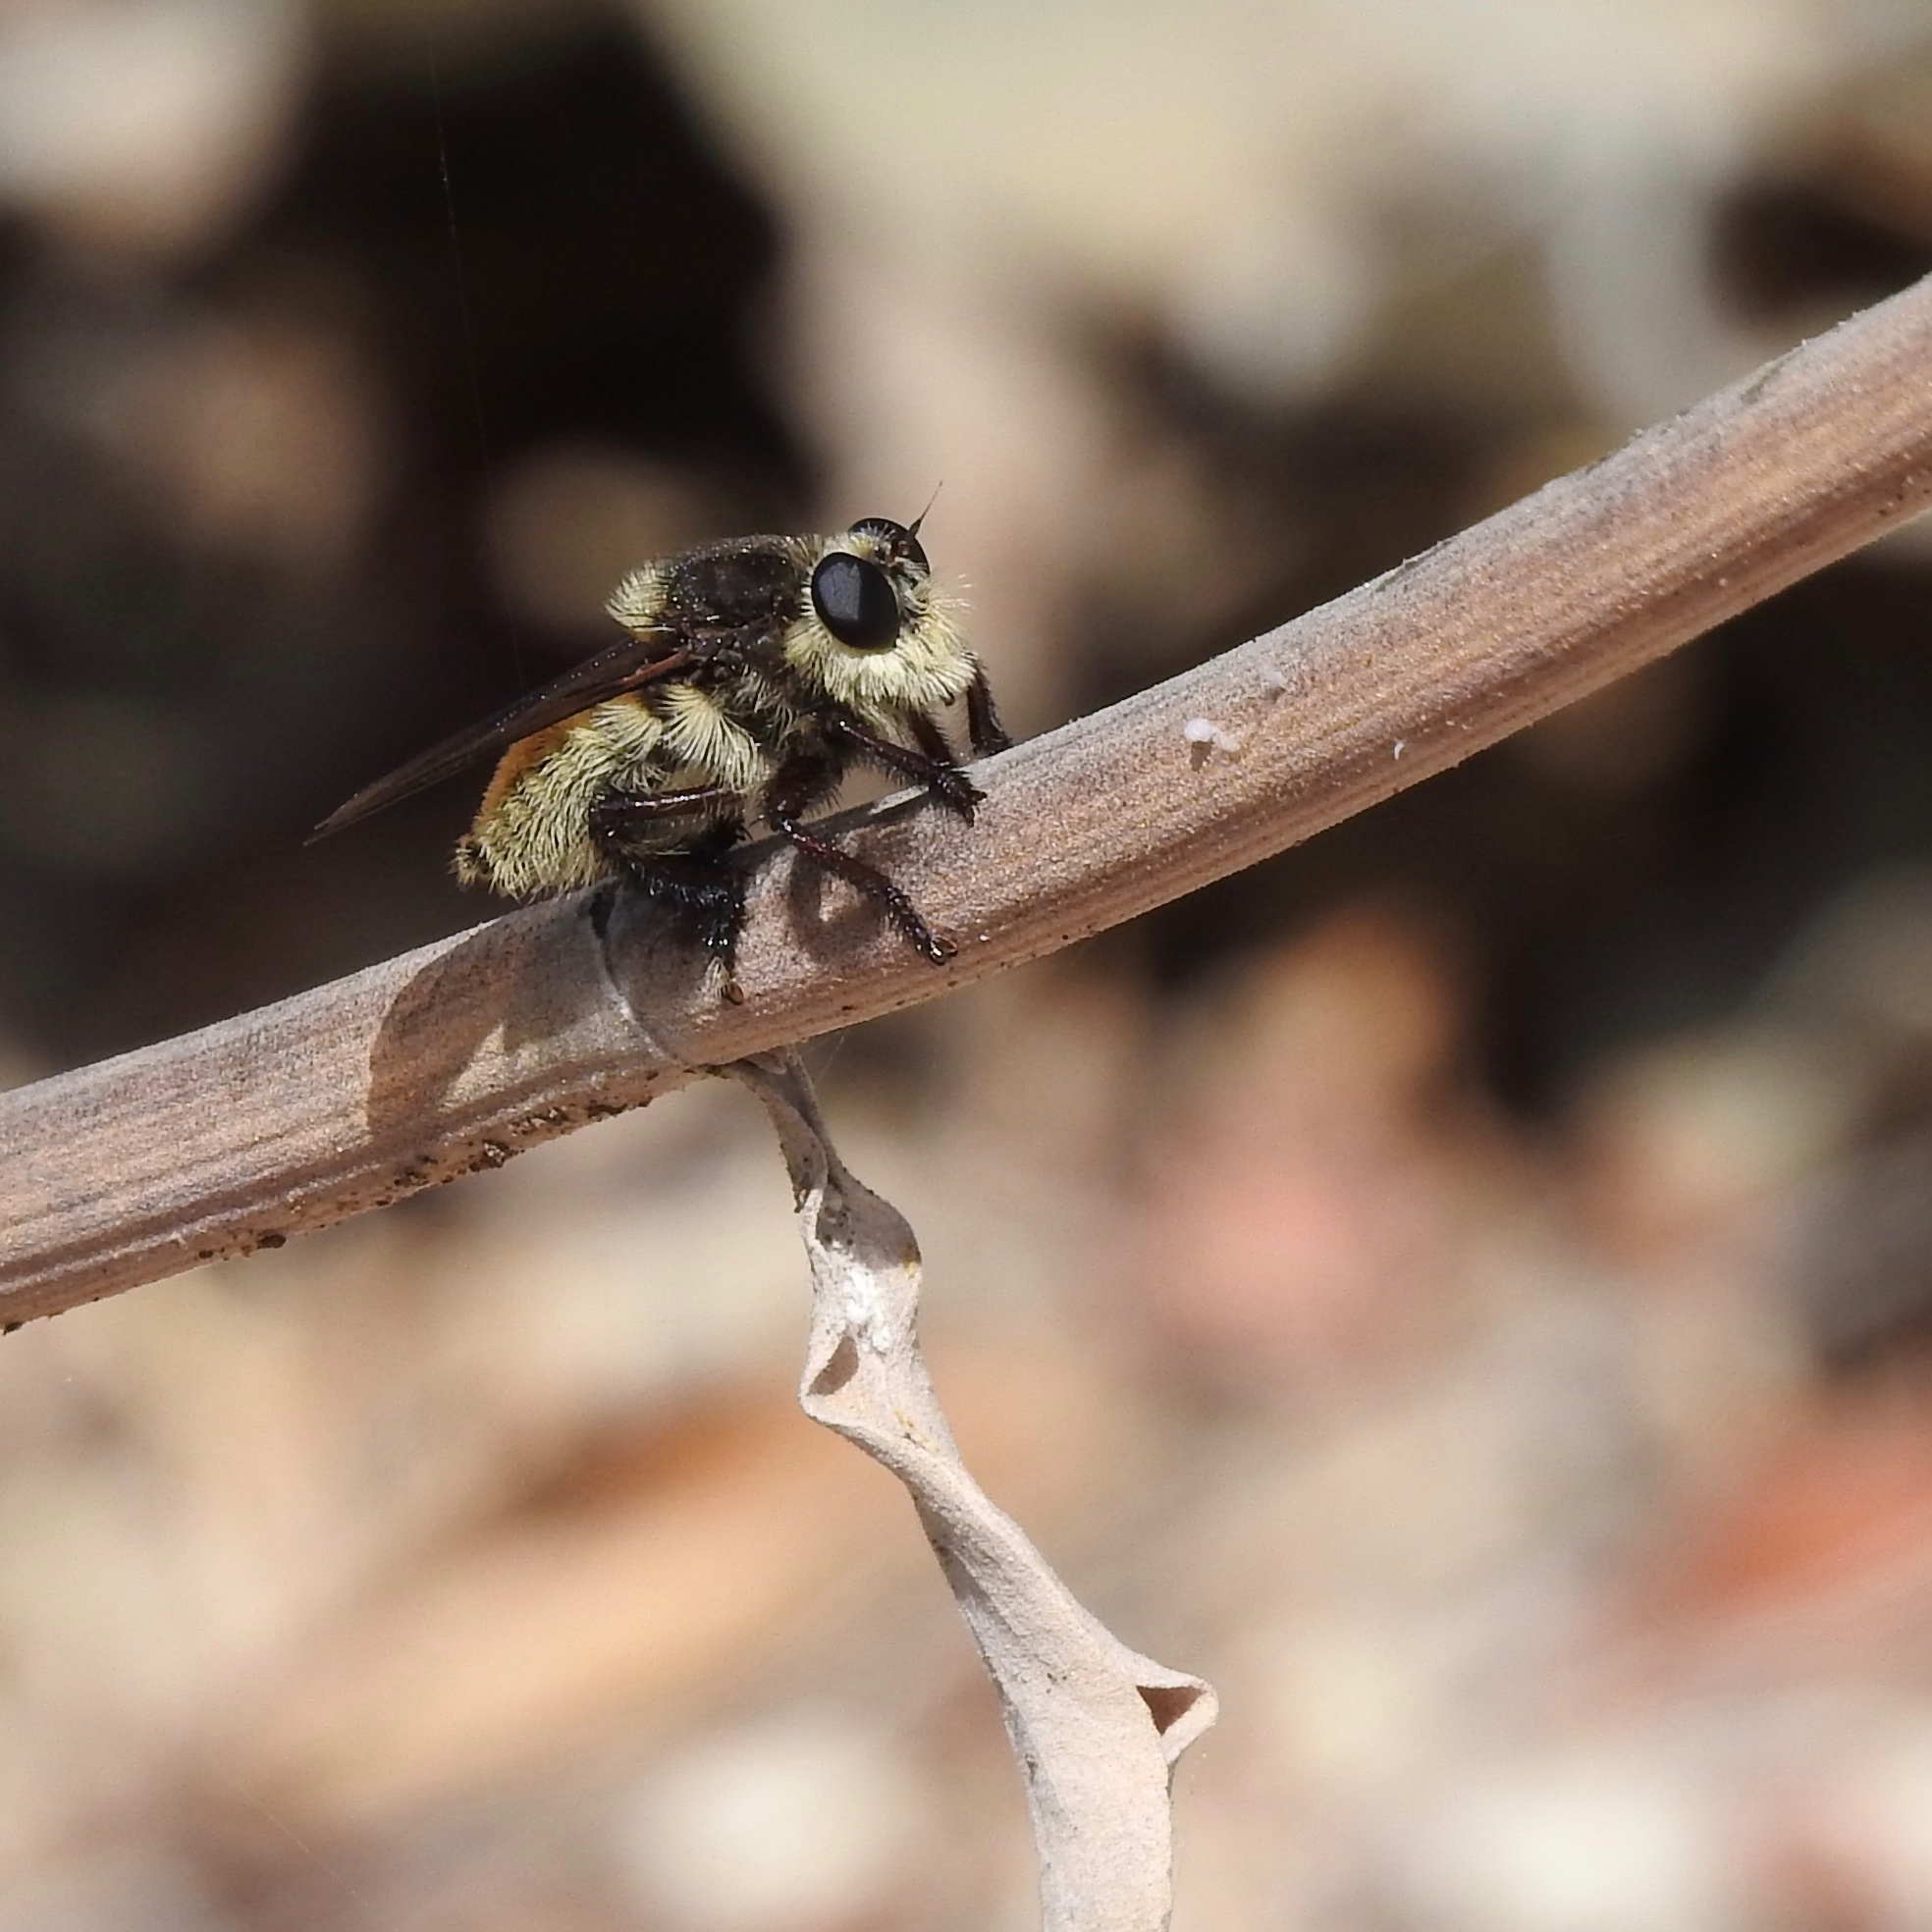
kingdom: Animalia
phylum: Arthropoda
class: Insecta
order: Diptera
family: Asilidae
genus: Mallophora
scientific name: Mallophora fautrix
